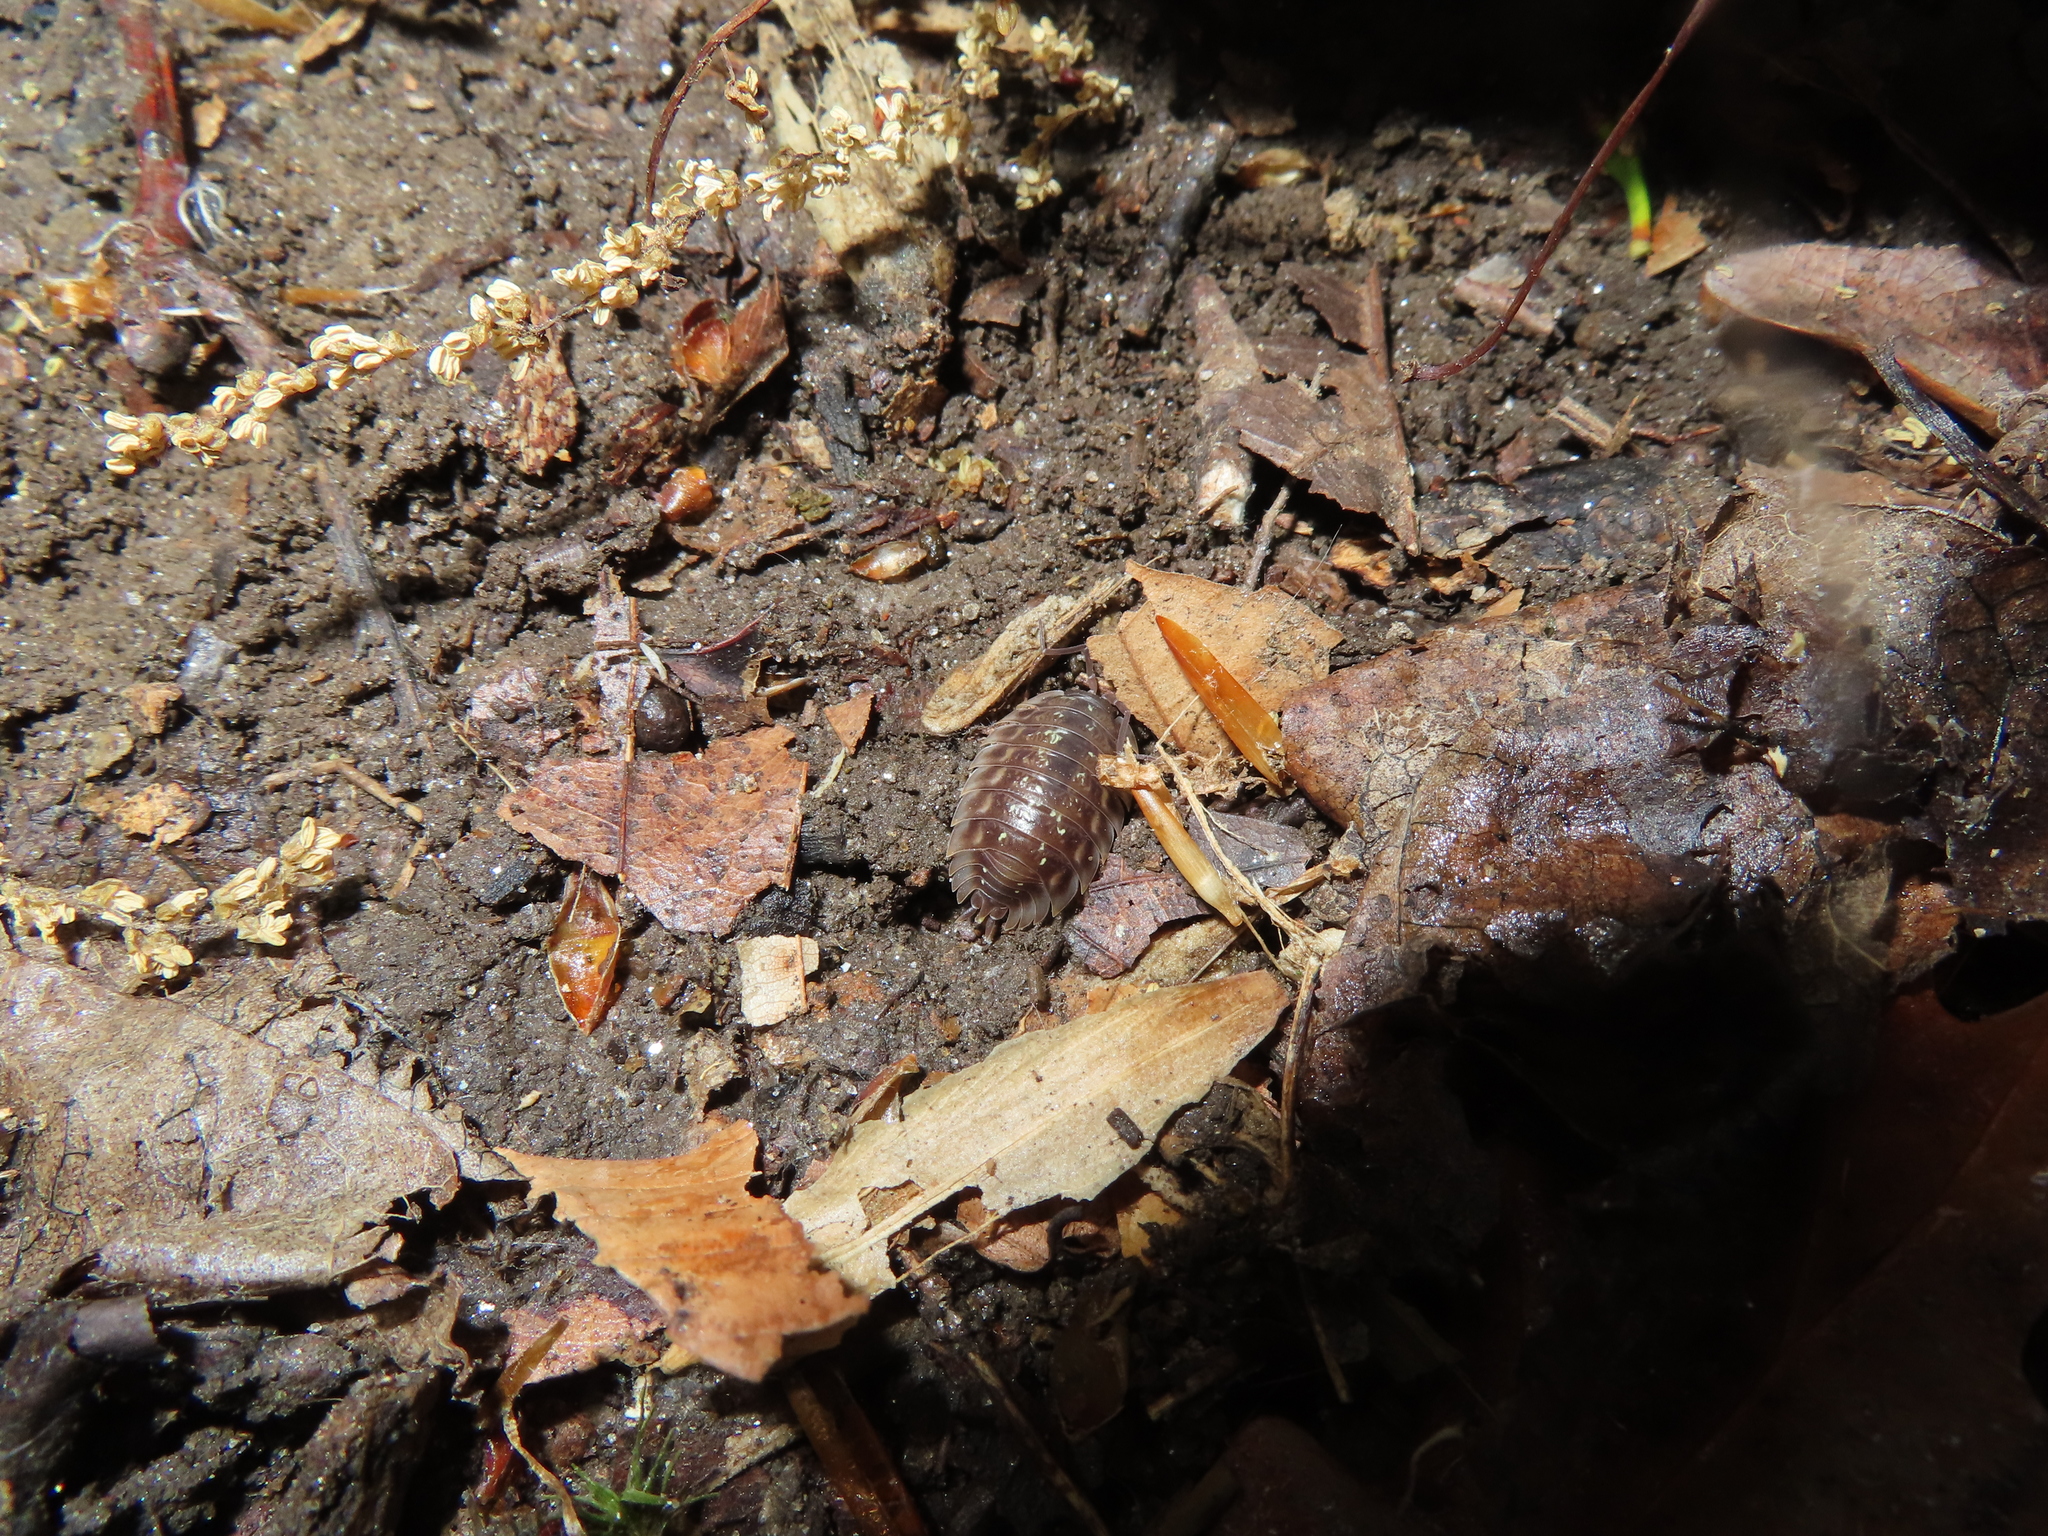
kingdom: Animalia
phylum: Arthropoda
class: Malacostraca
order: Isopoda
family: Oniscidae
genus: Oniscus
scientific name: Oniscus asellus
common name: Common shiny woodlouse
